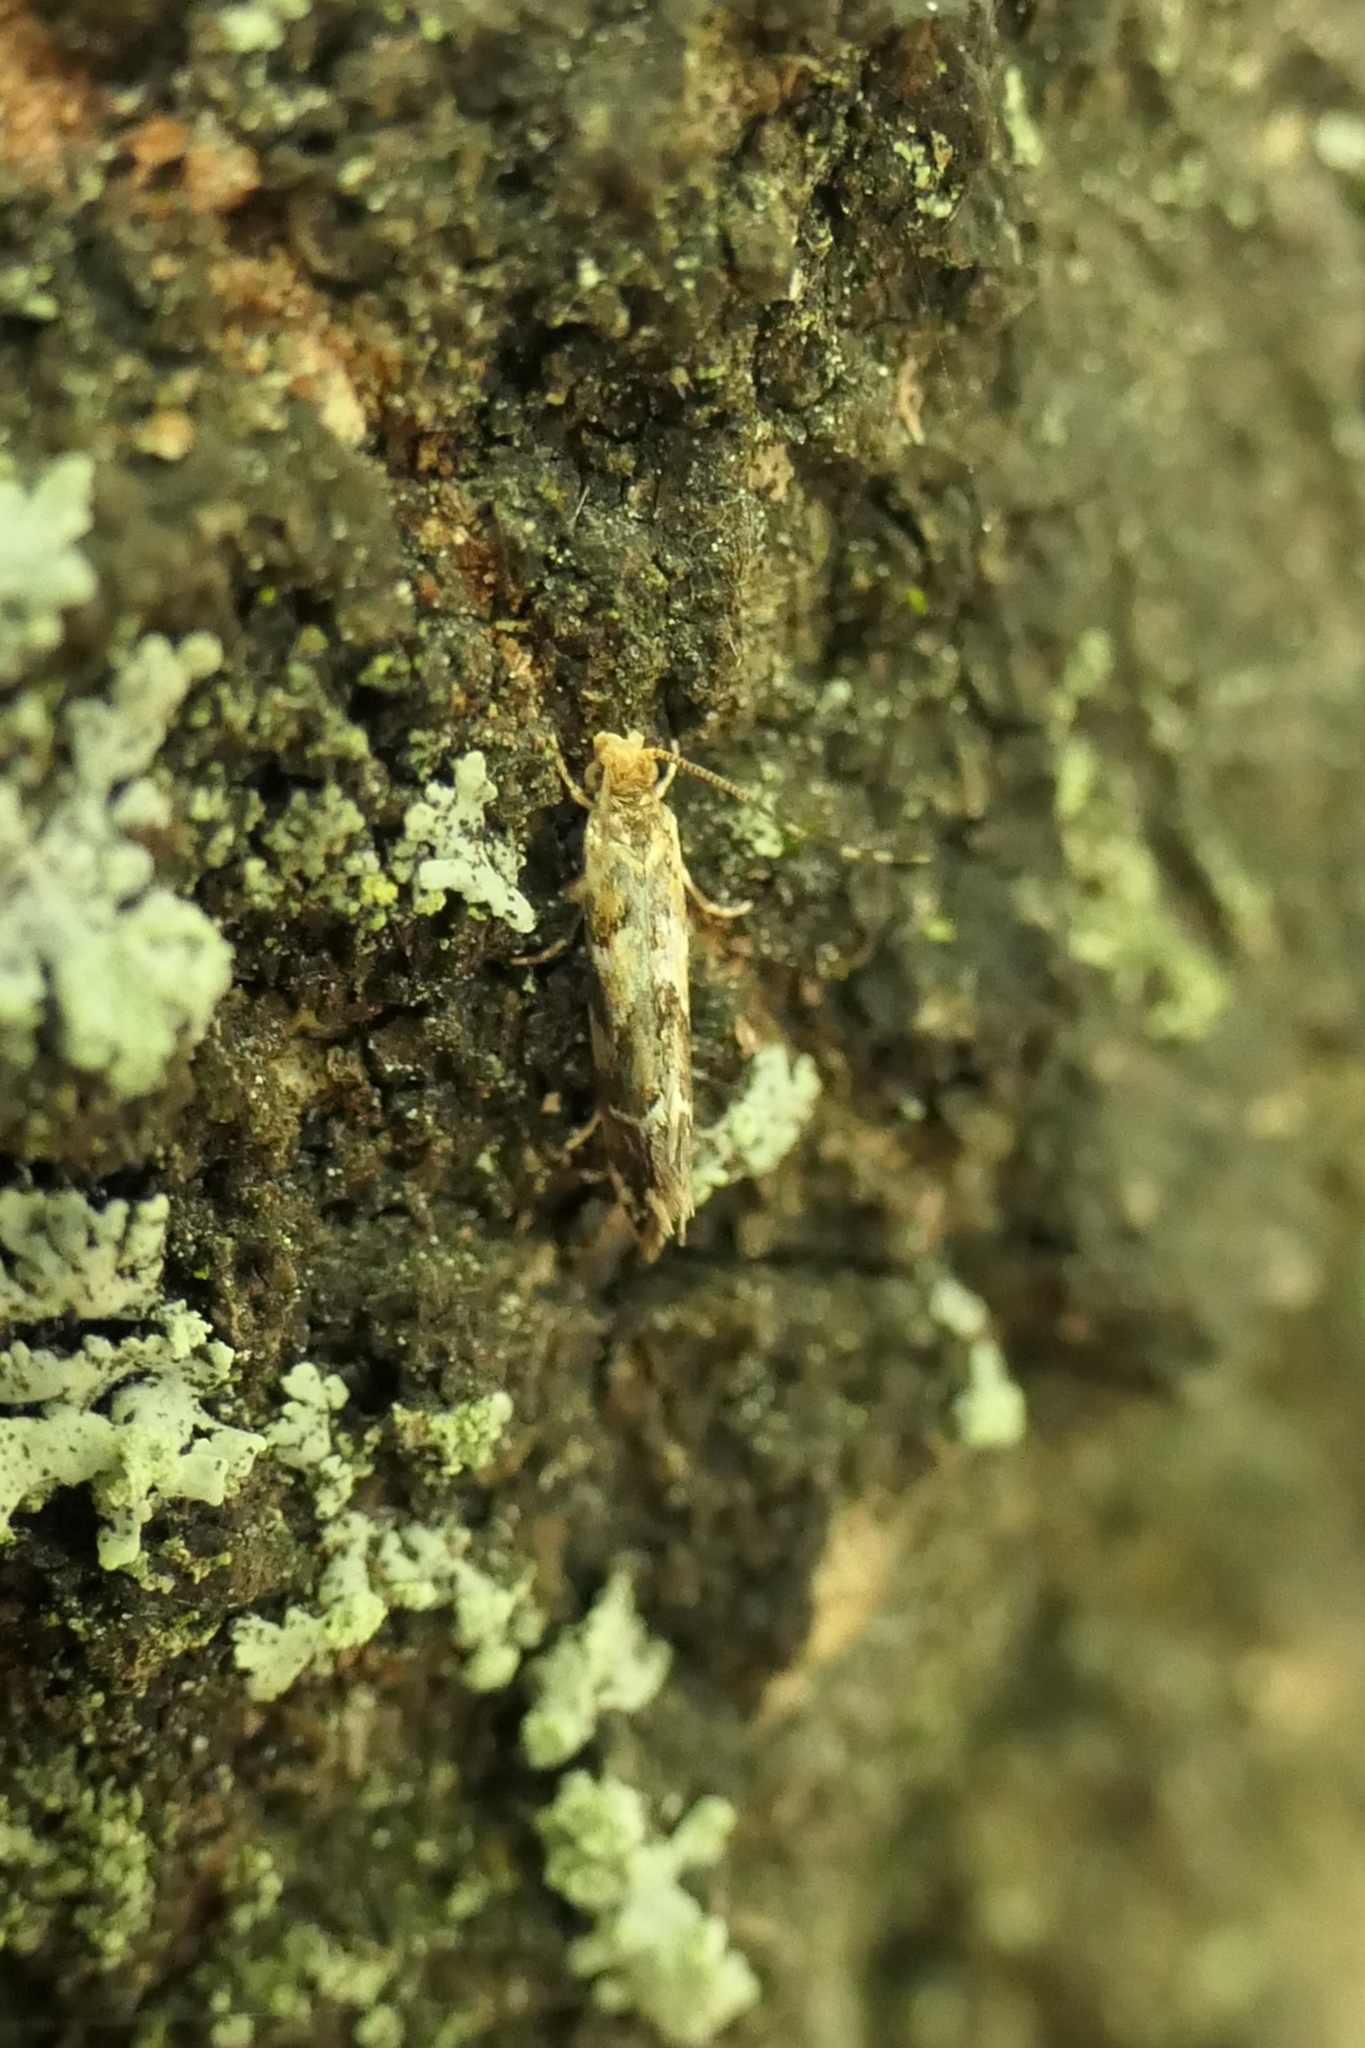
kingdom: Animalia
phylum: Arthropoda
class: Insecta
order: Lepidoptera
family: Dryadaulidae
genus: Dryadaula
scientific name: Dryadaula pactolia
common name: Cellar clothes
